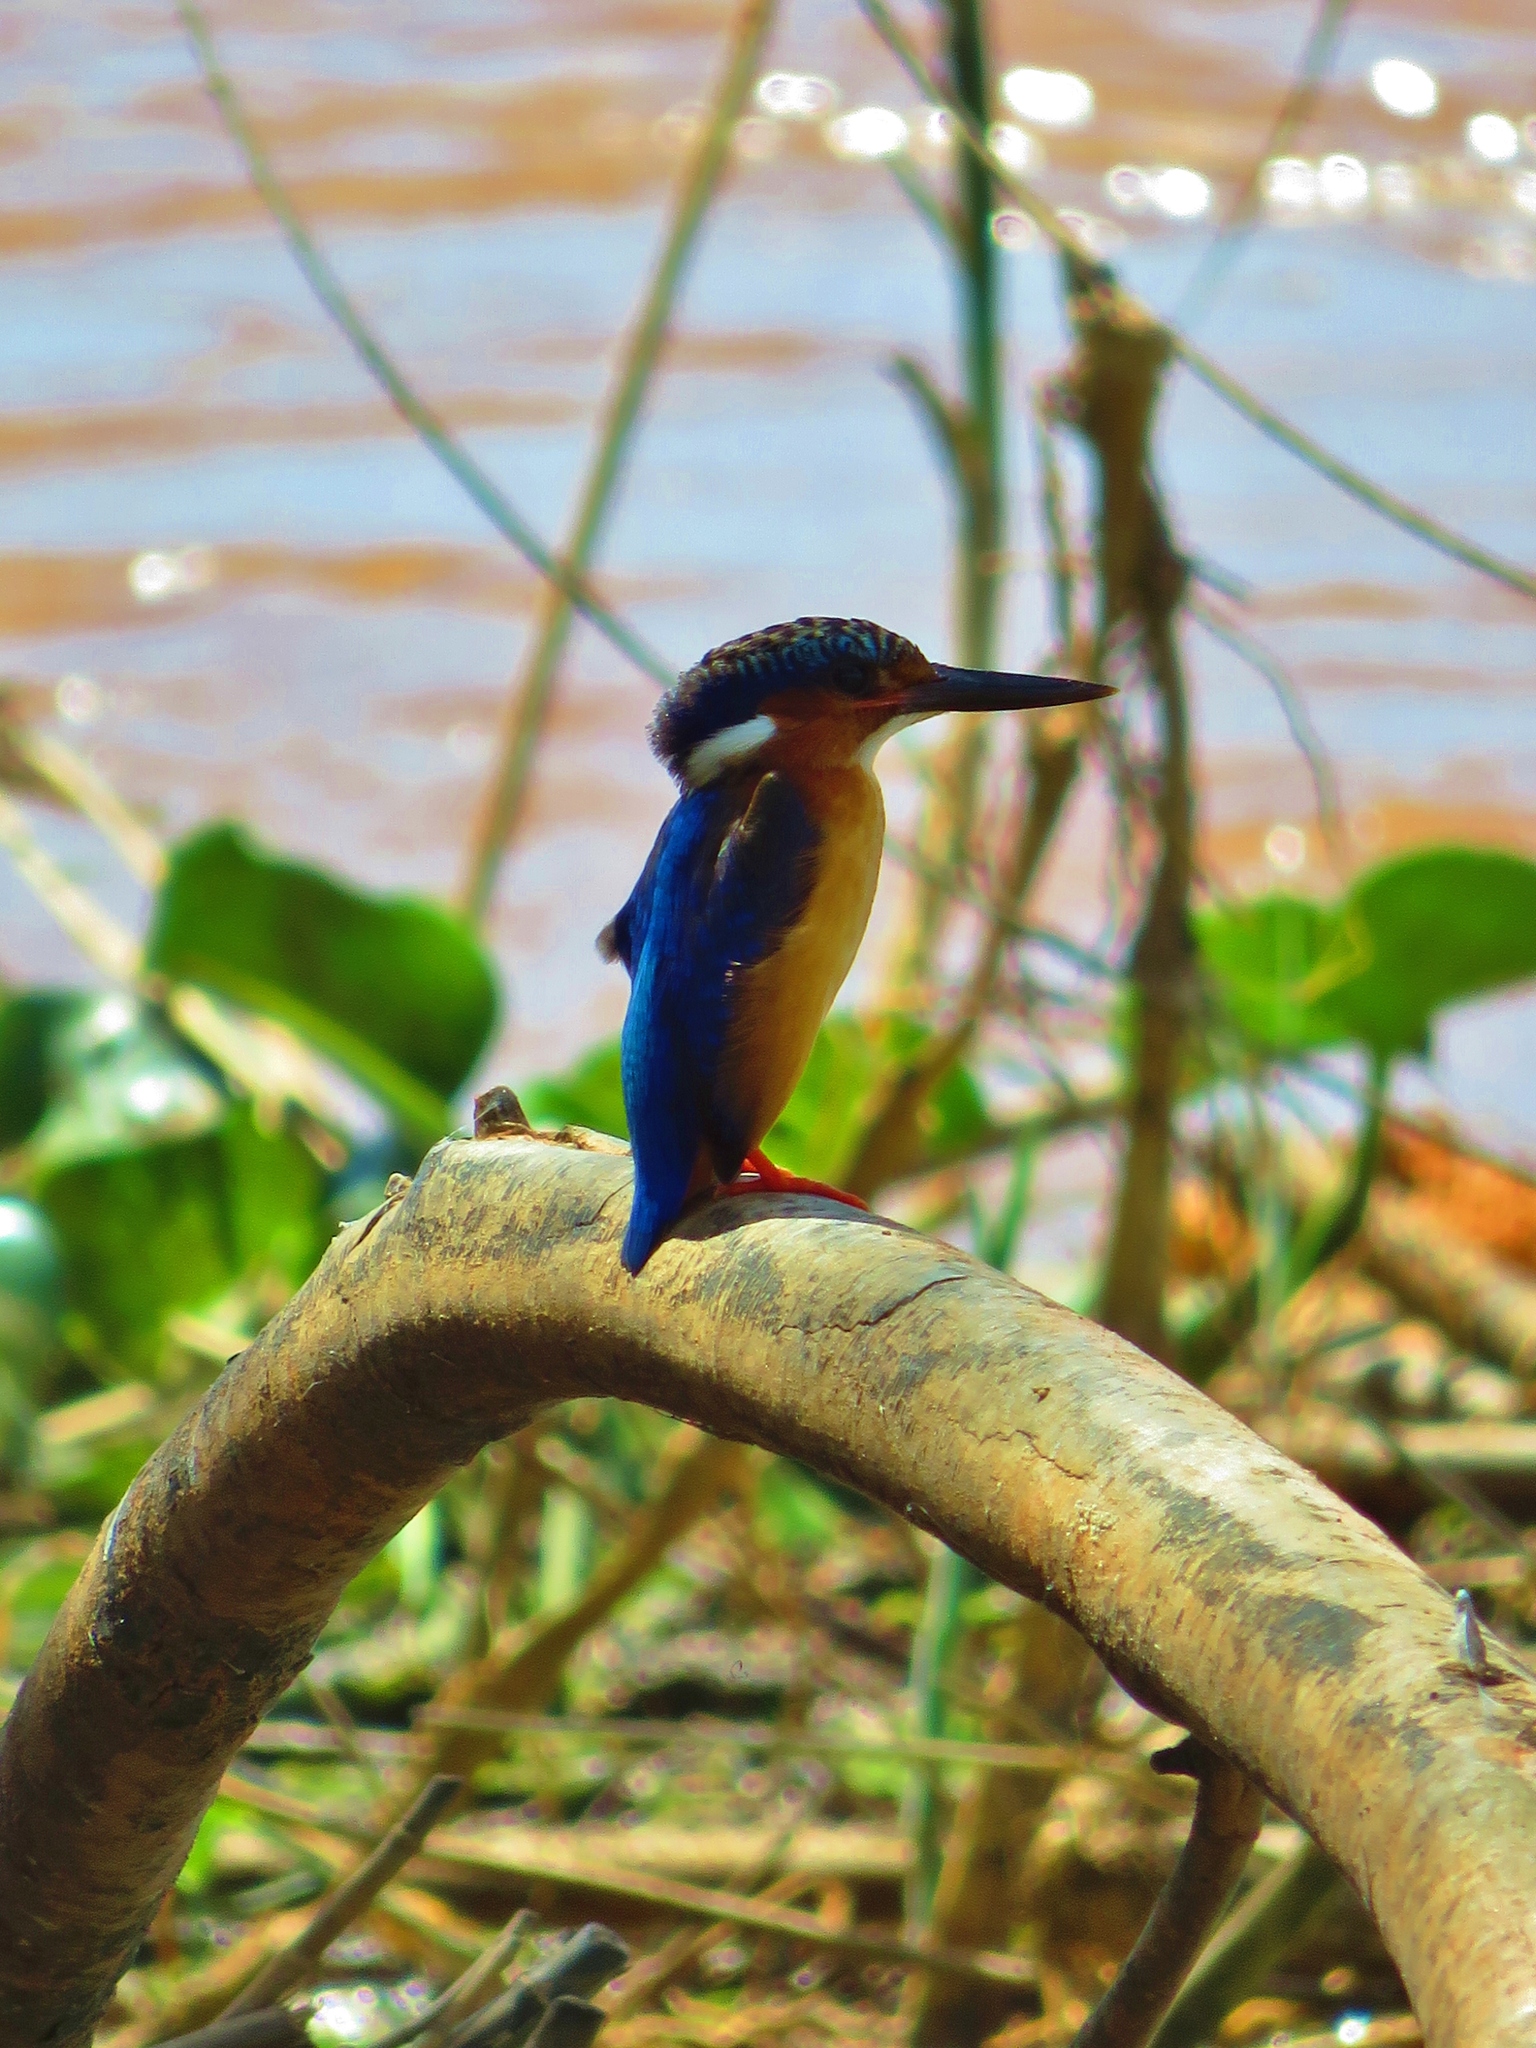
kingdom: Animalia
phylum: Chordata
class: Aves
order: Coraciiformes
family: Alcedinidae
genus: Corythornis
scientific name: Corythornis vintsioides
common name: Malagasy kingfisher
